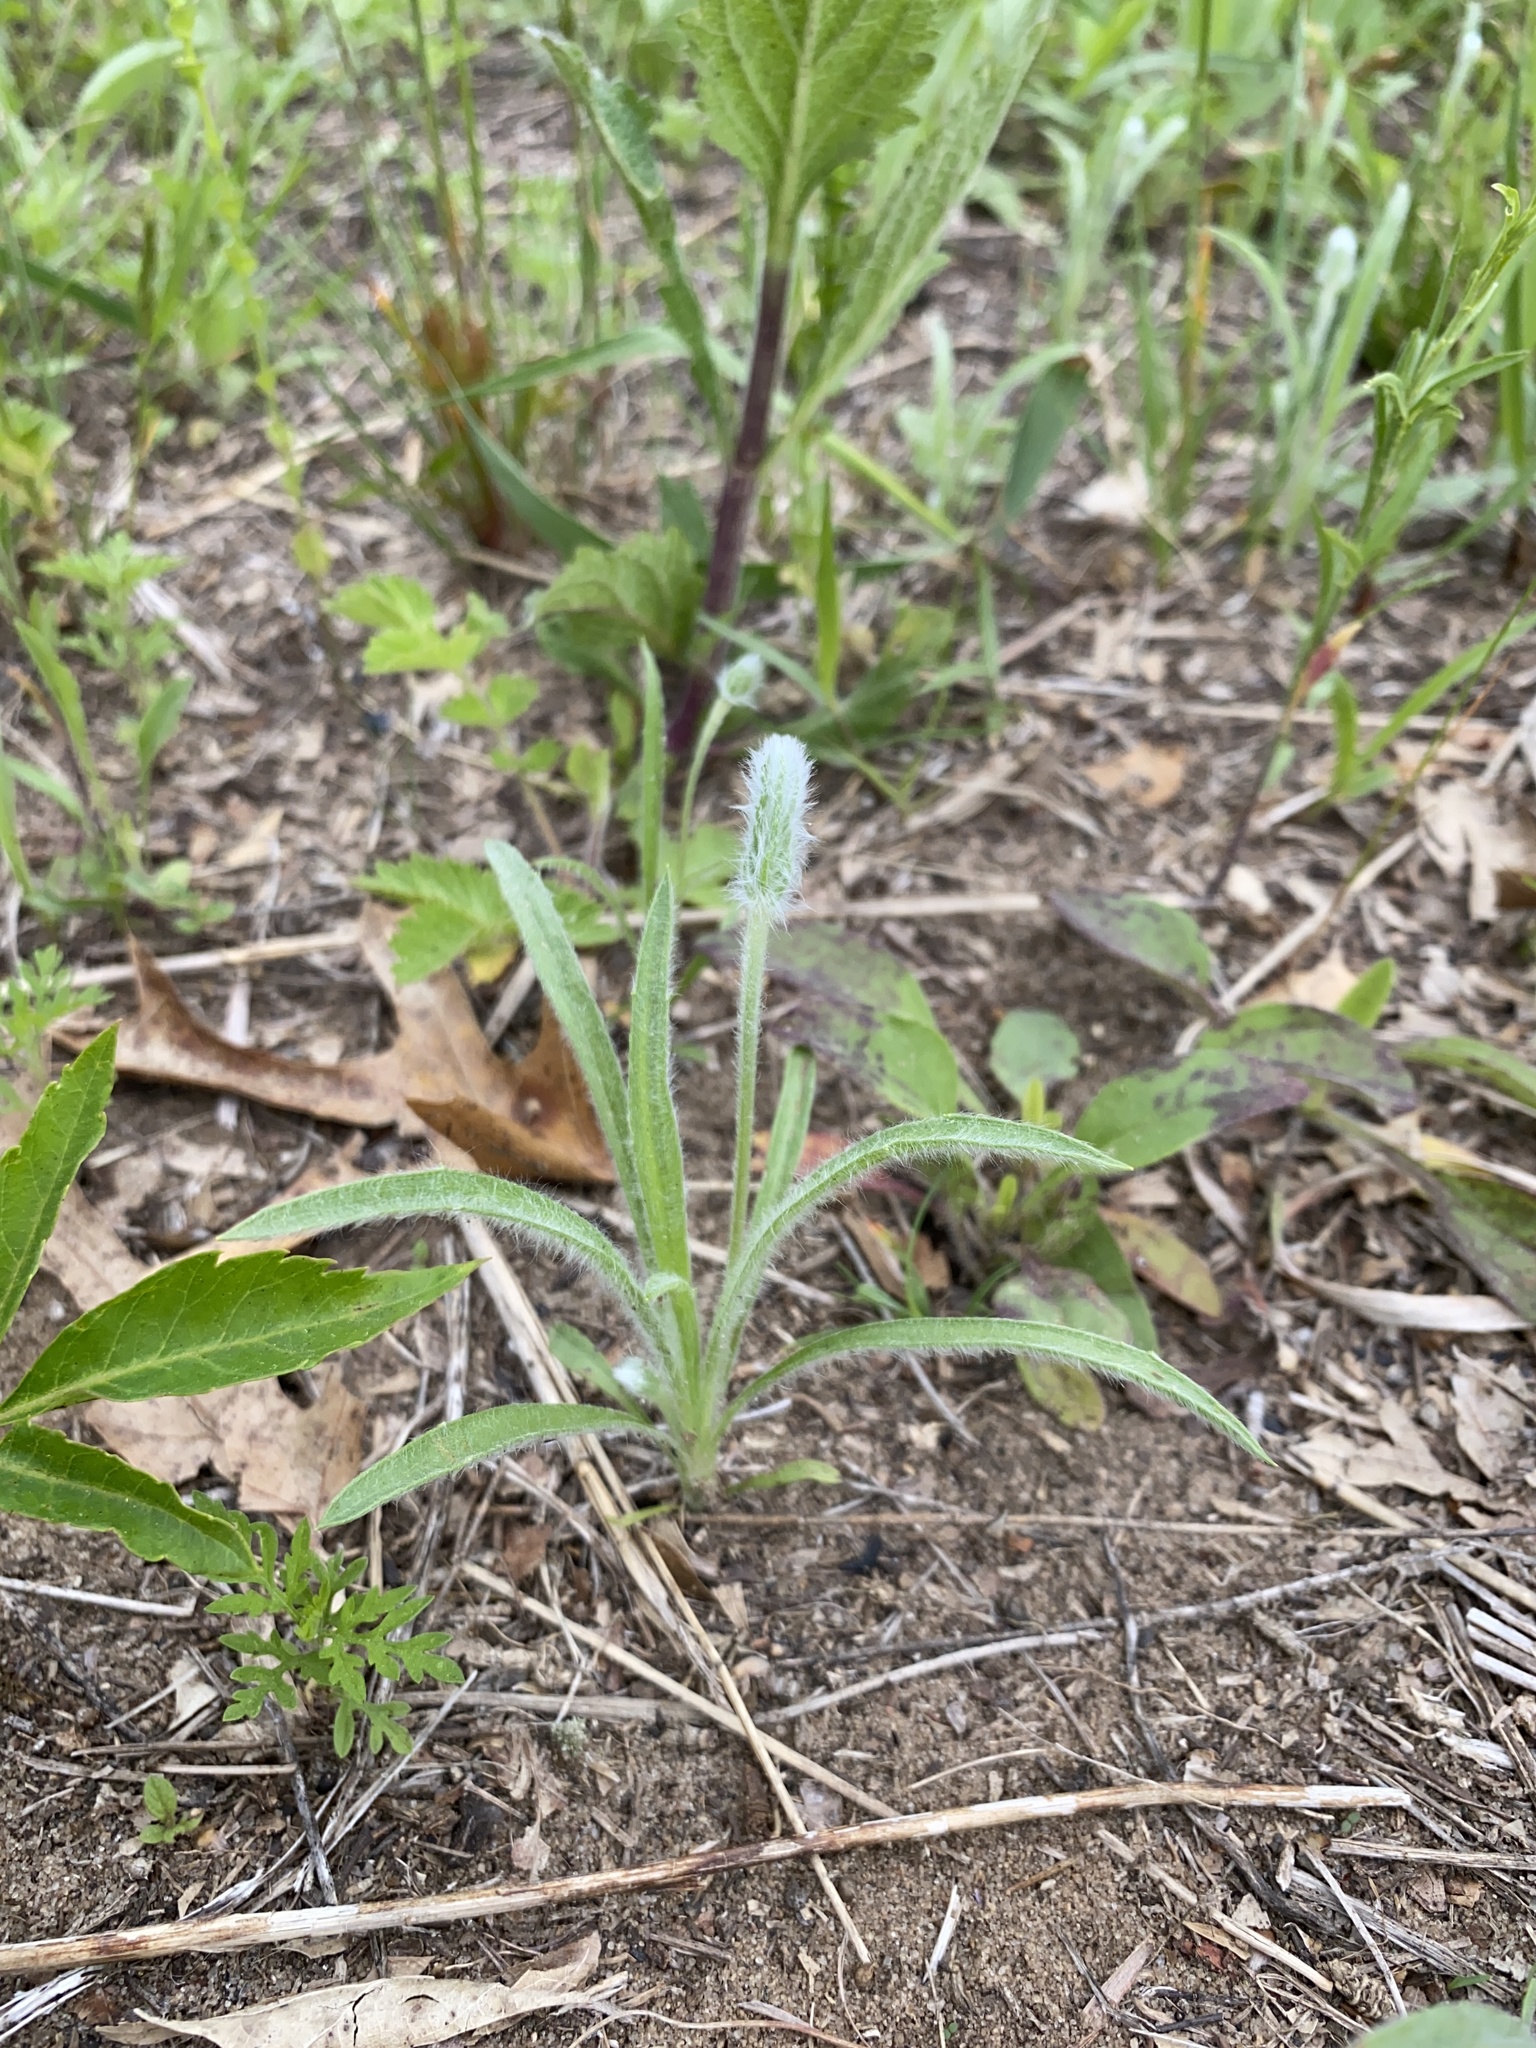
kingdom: Plantae
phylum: Tracheophyta
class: Magnoliopsida
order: Lamiales
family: Plantaginaceae
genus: Plantago
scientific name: Plantago patagonica
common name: Patagonia indian-wheat
